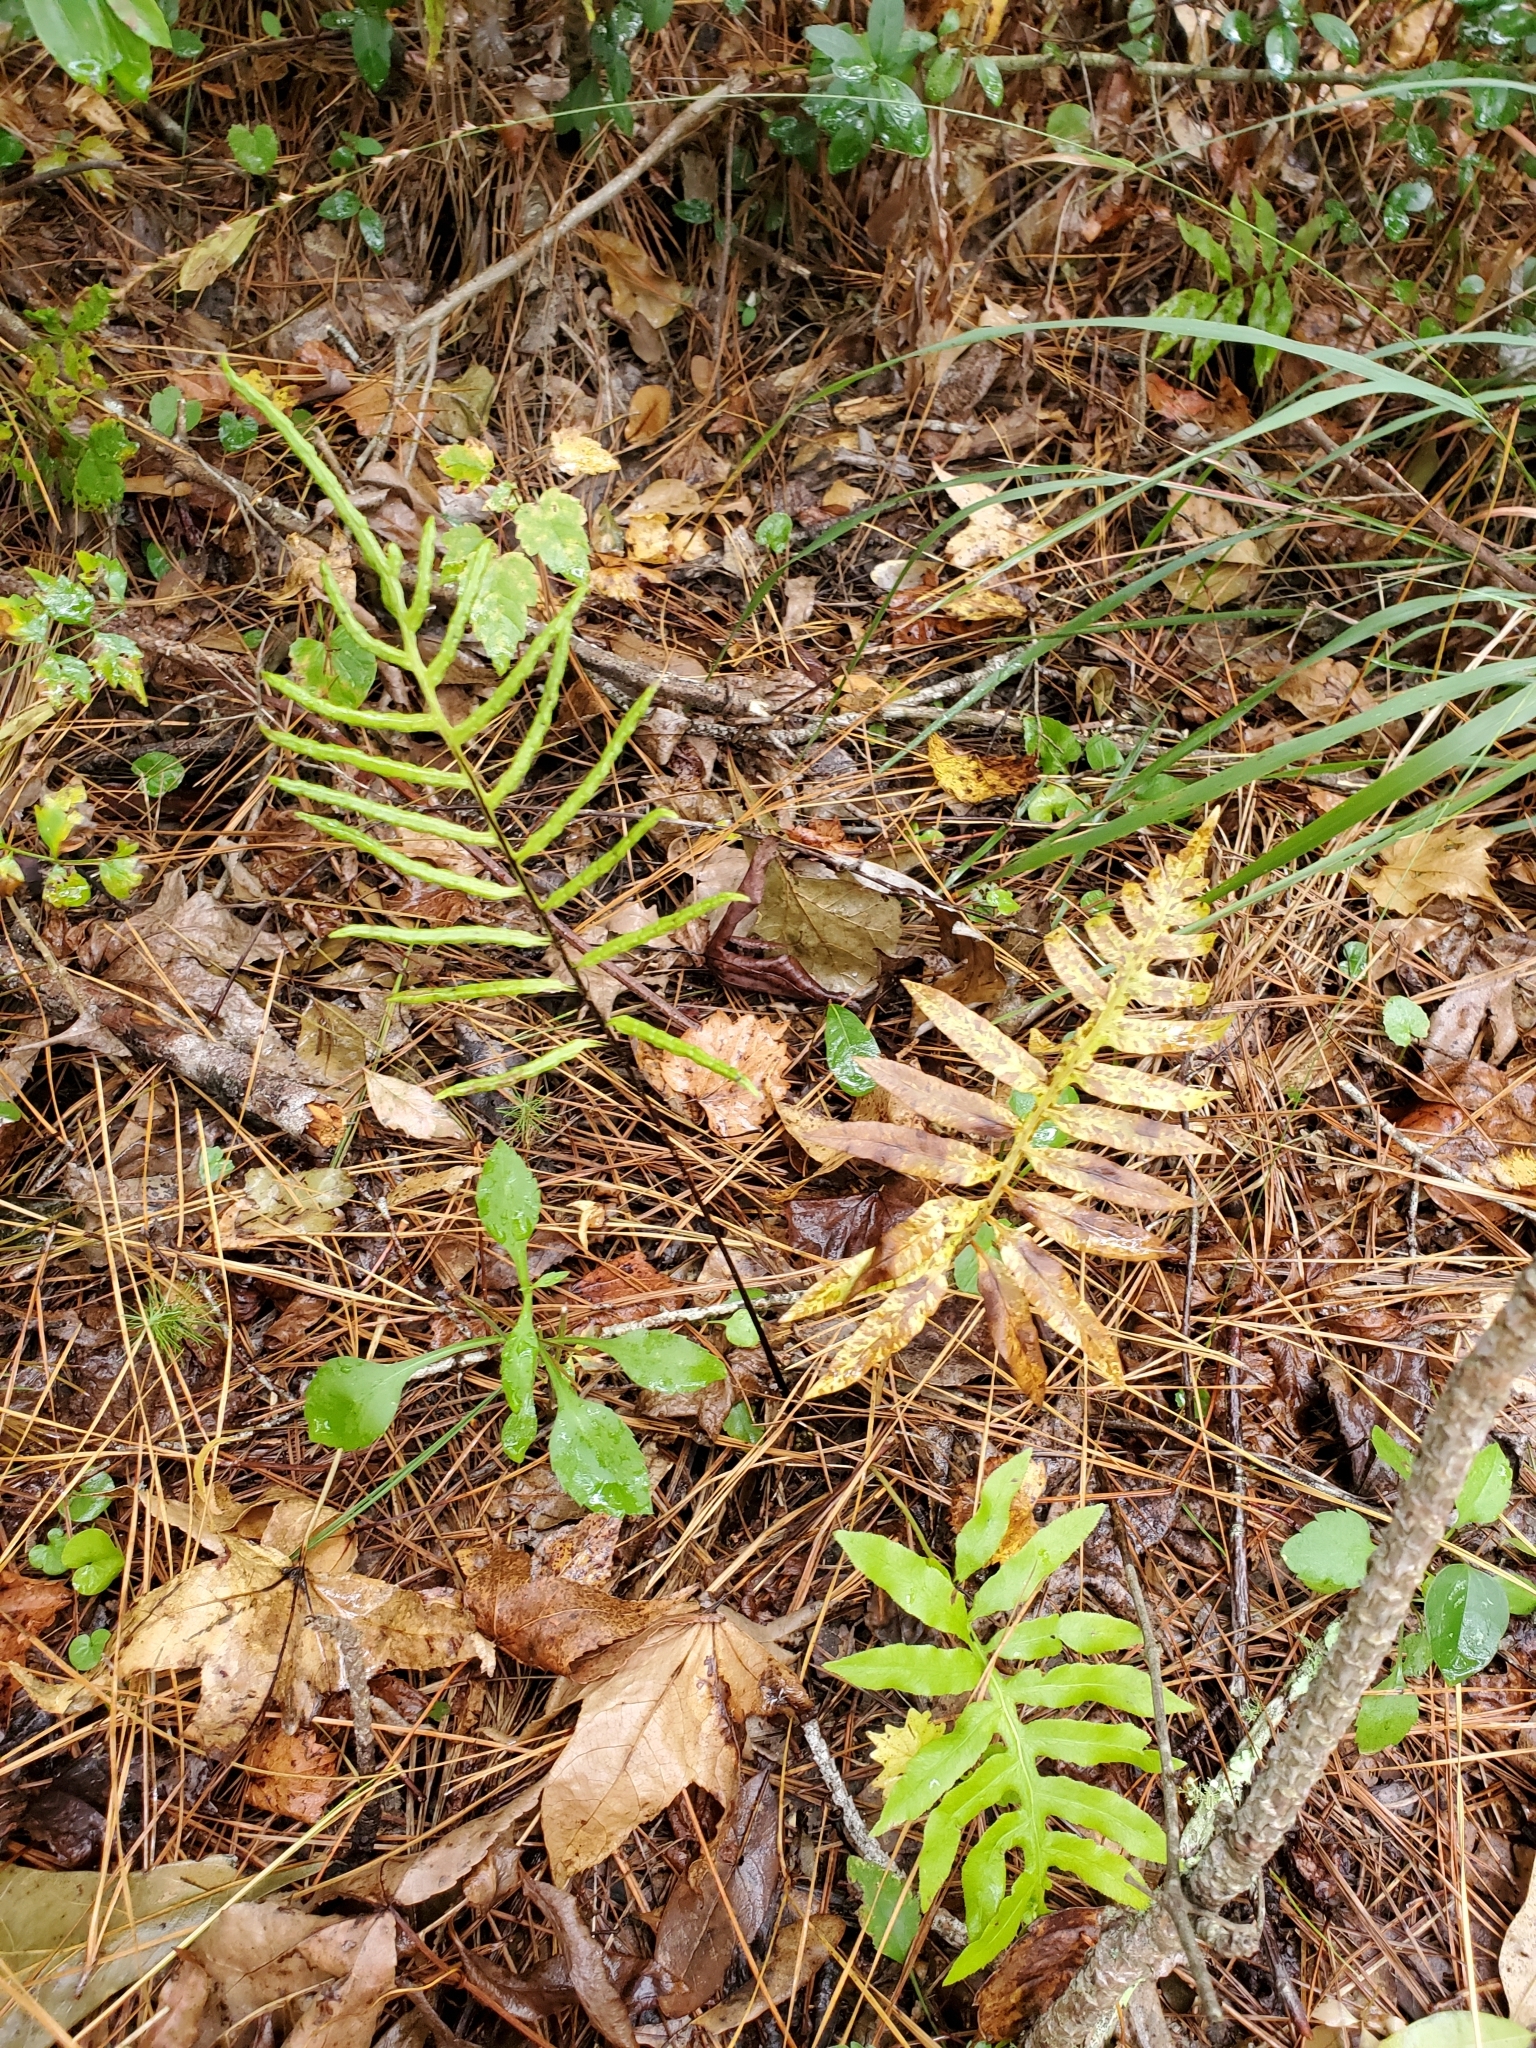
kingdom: Plantae
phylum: Tracheophyta
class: Polypodiopsida
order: Polypodiales
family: Blechnaceae
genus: Lorinseria
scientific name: Lorinseria areolata
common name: Dwarf chain fern
